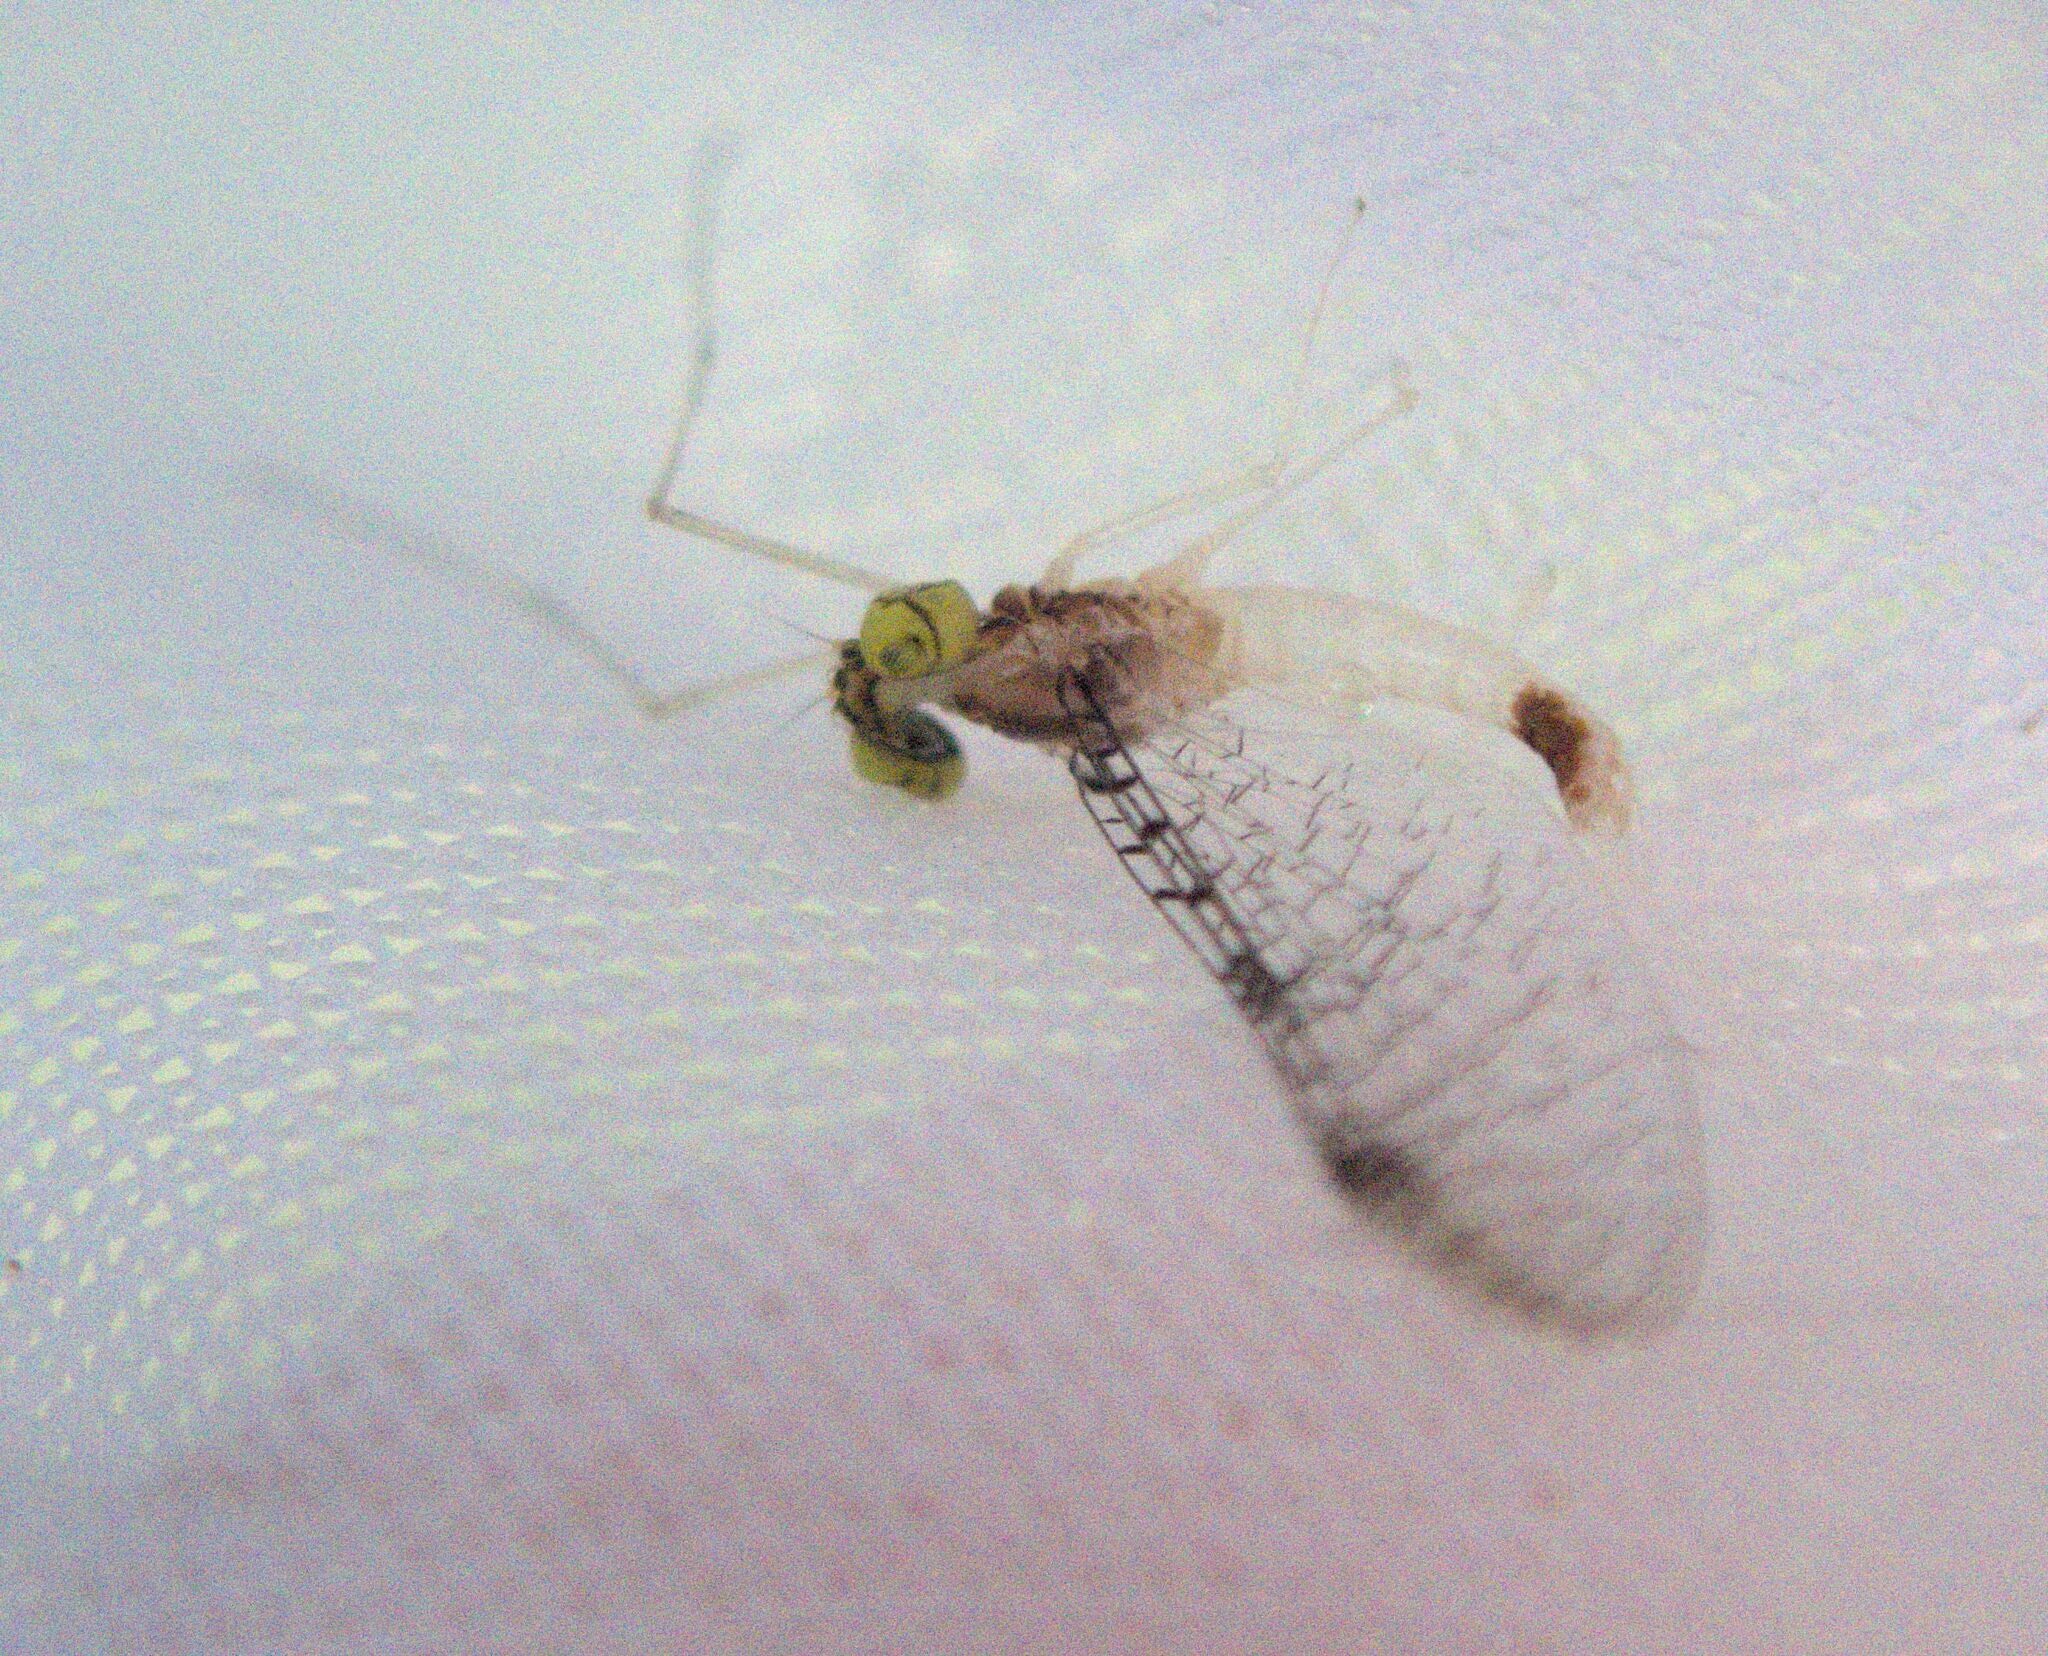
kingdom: Animalia
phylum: Arthropoda
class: Insecta
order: Ephemeroptera
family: Heptageniidae
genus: Leucrocuta
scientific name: Leucrocuta maculipennis
